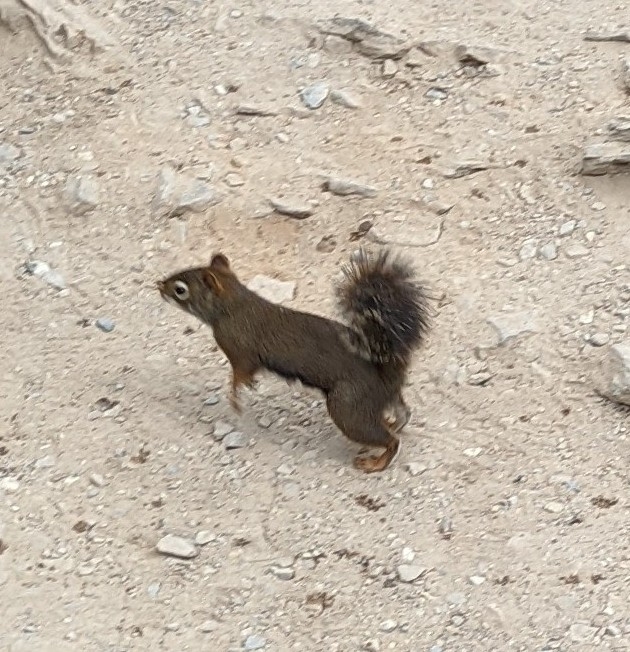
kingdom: Animalia
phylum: Chordata
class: Mammalia
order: Rodentia
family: Sciuridae
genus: Tamiasciurus
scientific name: Tamiasciurus hudsonicus
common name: Red squirrel
